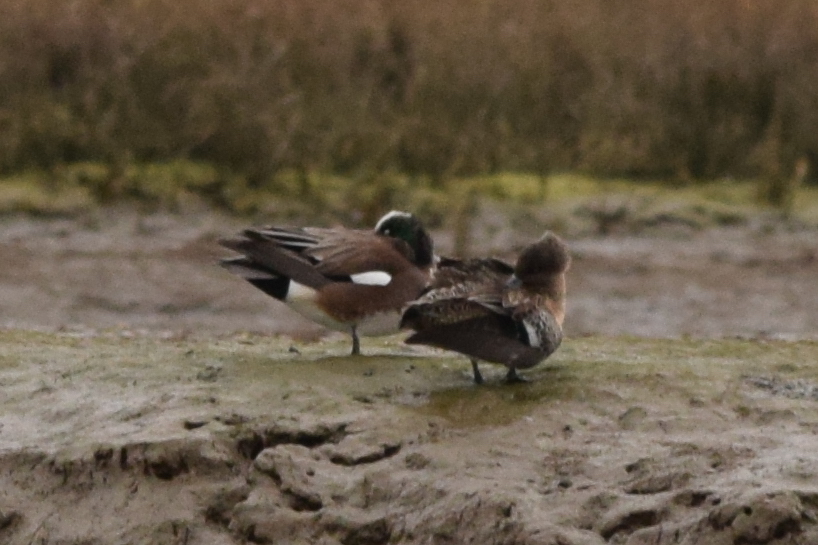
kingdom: Animalia
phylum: Chordata
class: Aves
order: Anseriformes
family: Anatidae
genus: Mareca
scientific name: Mareca americana
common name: American wigeon
